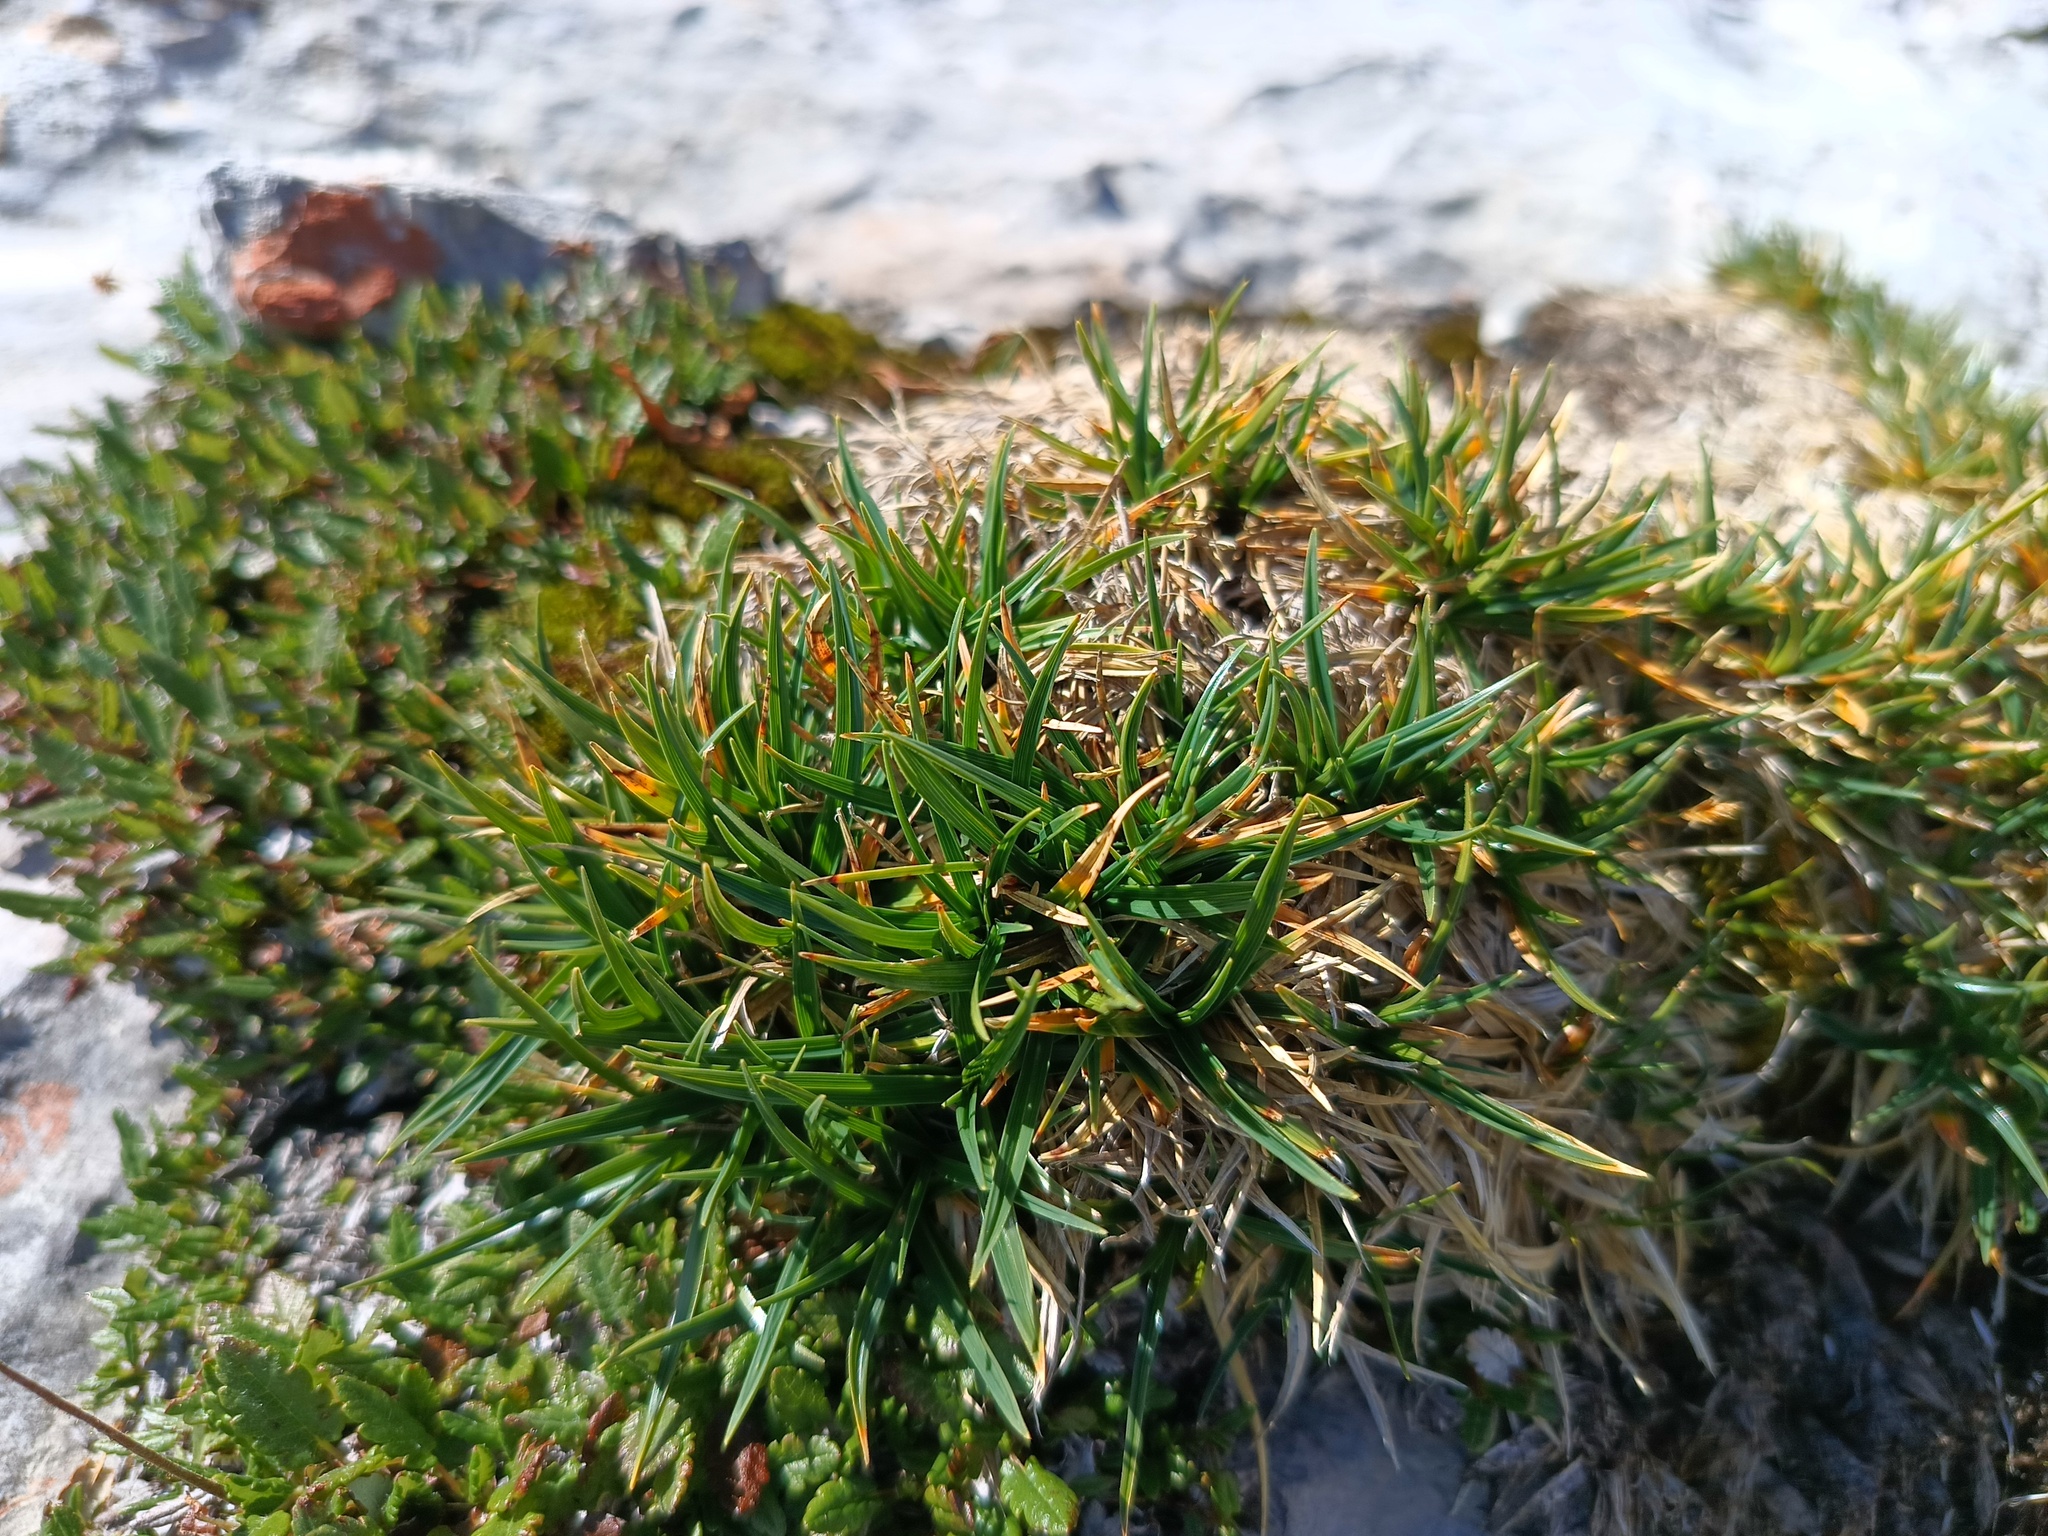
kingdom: Plantae
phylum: Tracheophyta
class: Liliopsida
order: Poales
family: Cyperaceae
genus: Carex
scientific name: Carex firma
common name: Dwarf pillow sedge
